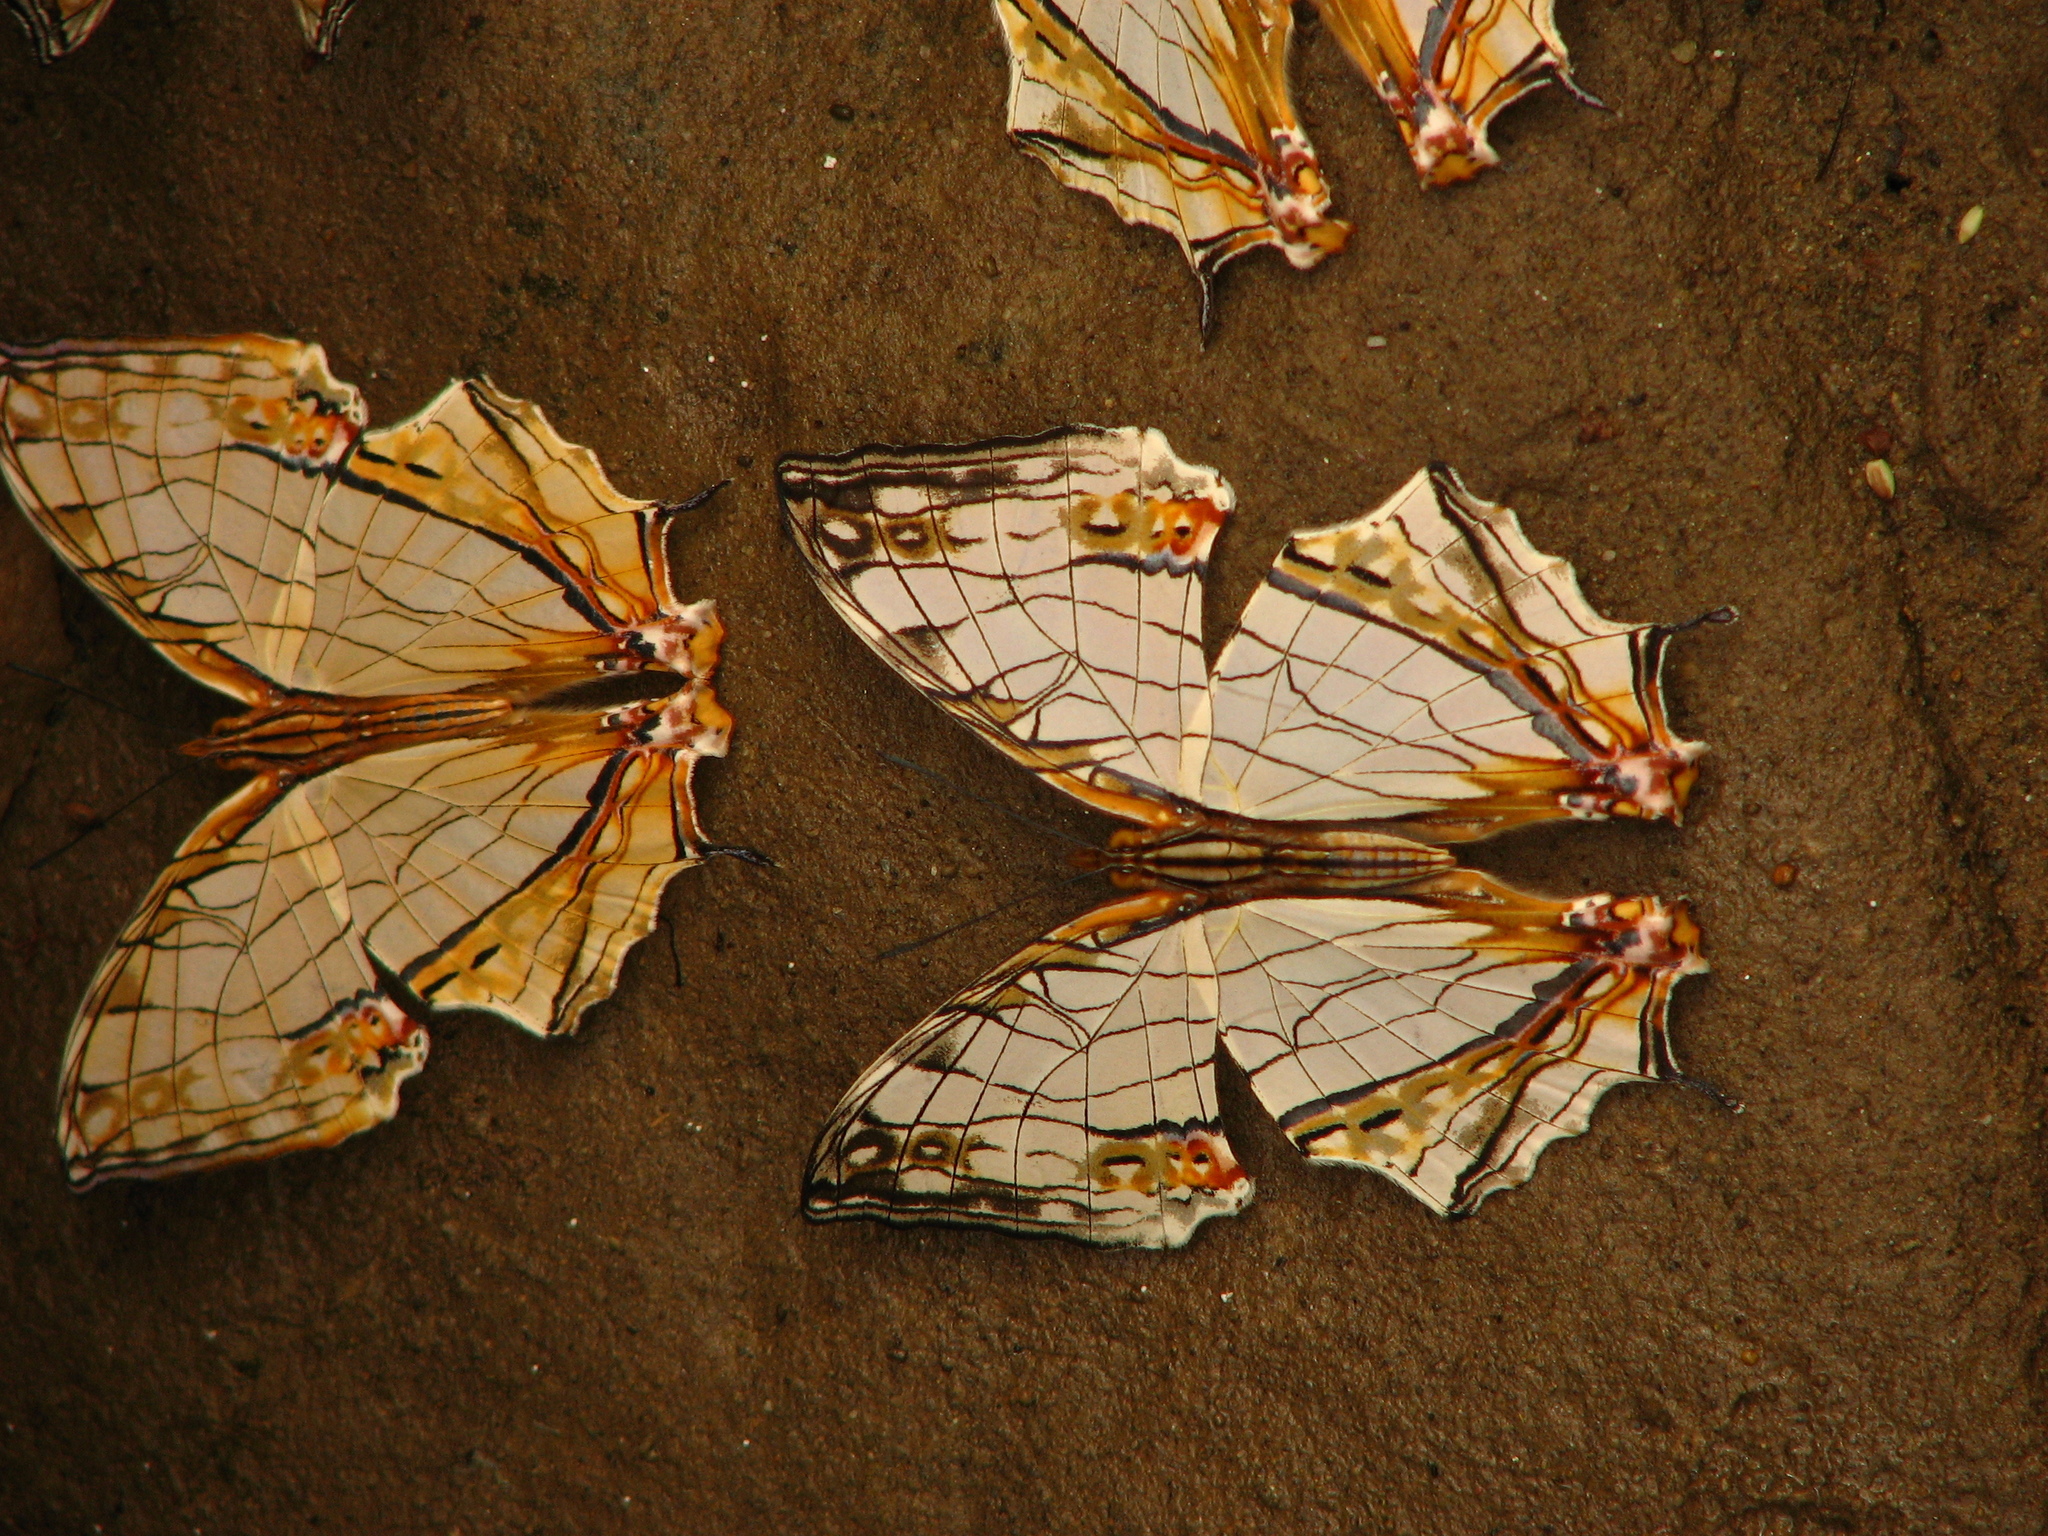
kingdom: Animalia
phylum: Arthropoda
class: Insecta
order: Lepidoptera
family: Nymphalidae
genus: Cyrestis
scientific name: Cyrestis thyodamas
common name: Common mapwing
